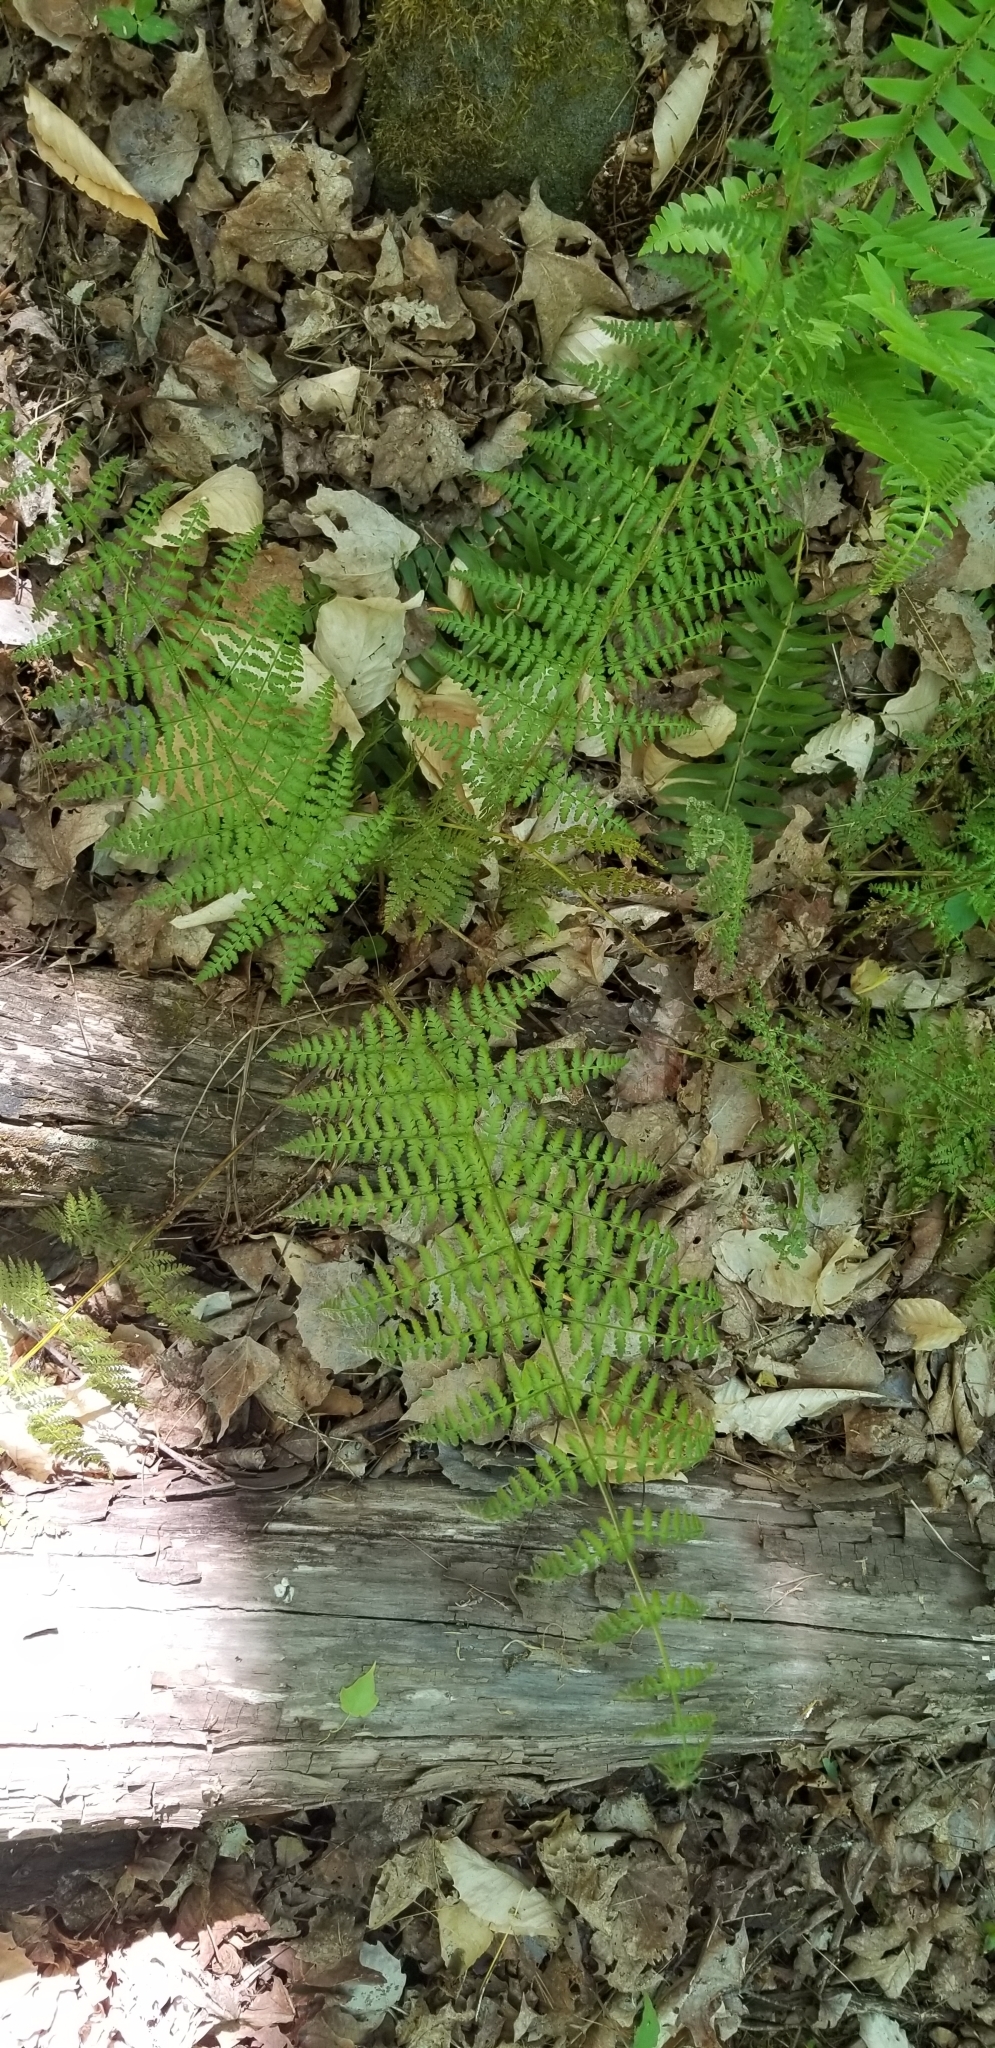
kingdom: Plantae
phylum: Tracheophyta
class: Polypodiopsida
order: Polypodiales
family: Dryopteridaceae
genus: Dryopteris
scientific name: Dryopteris intermedia
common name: Evergreen wood fern
